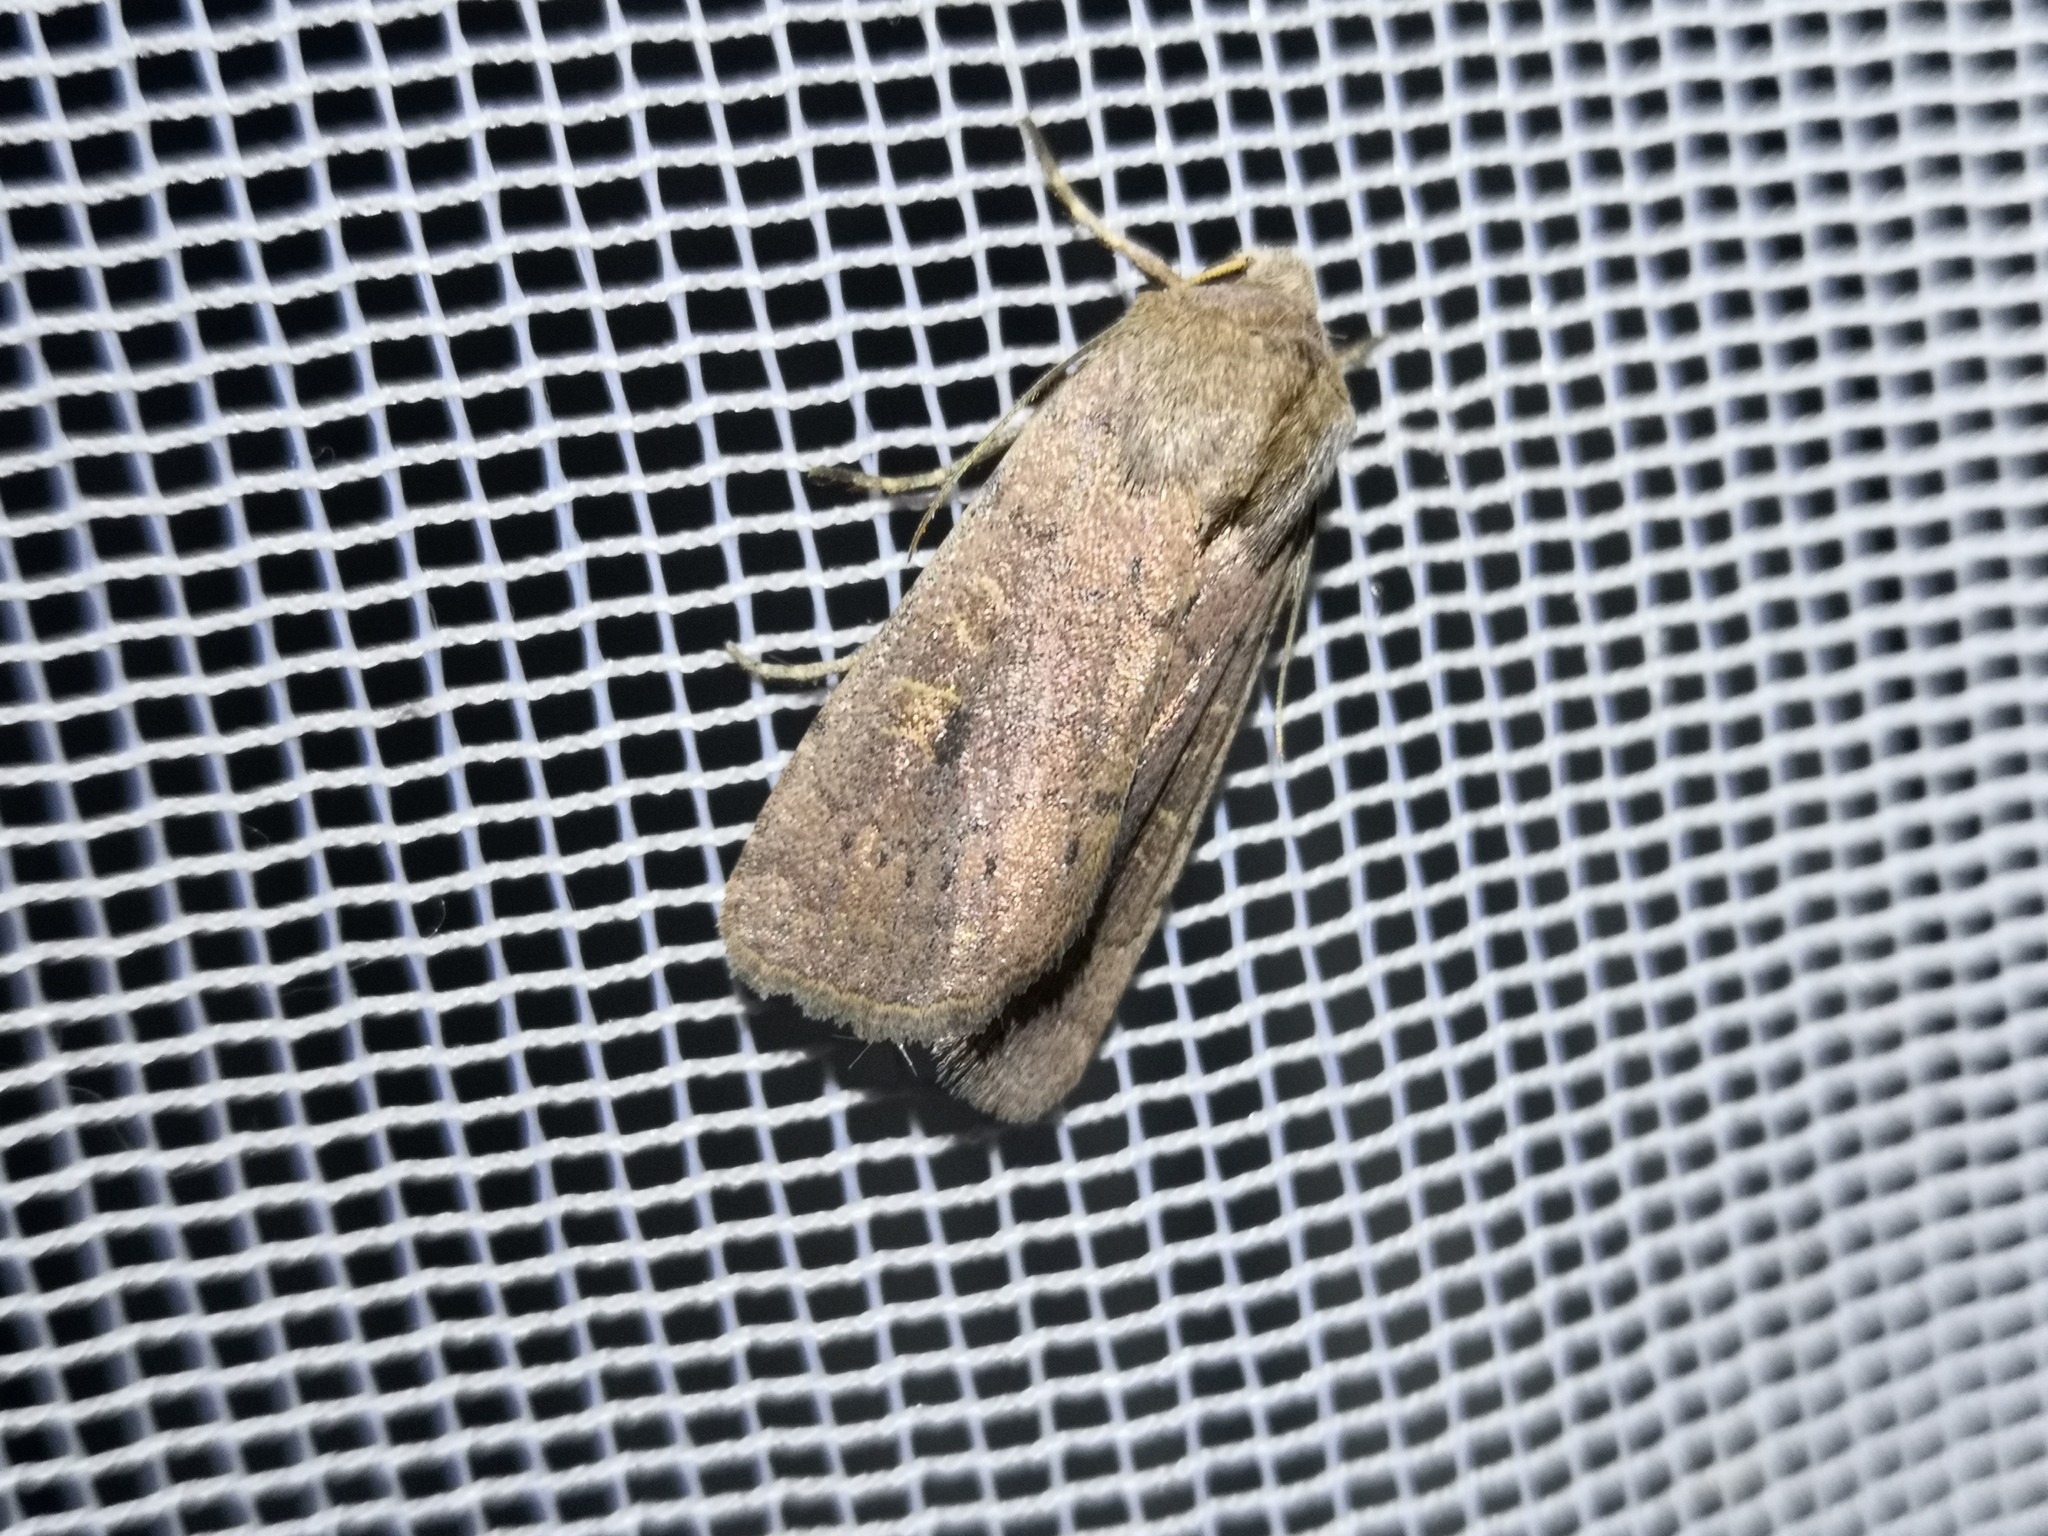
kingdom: Animalia
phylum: Arthropoda
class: Insecta
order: Lepidoptera
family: Noctuidae
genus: Xestia
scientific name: Xestia xanthographa
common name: Square-spot rustic
